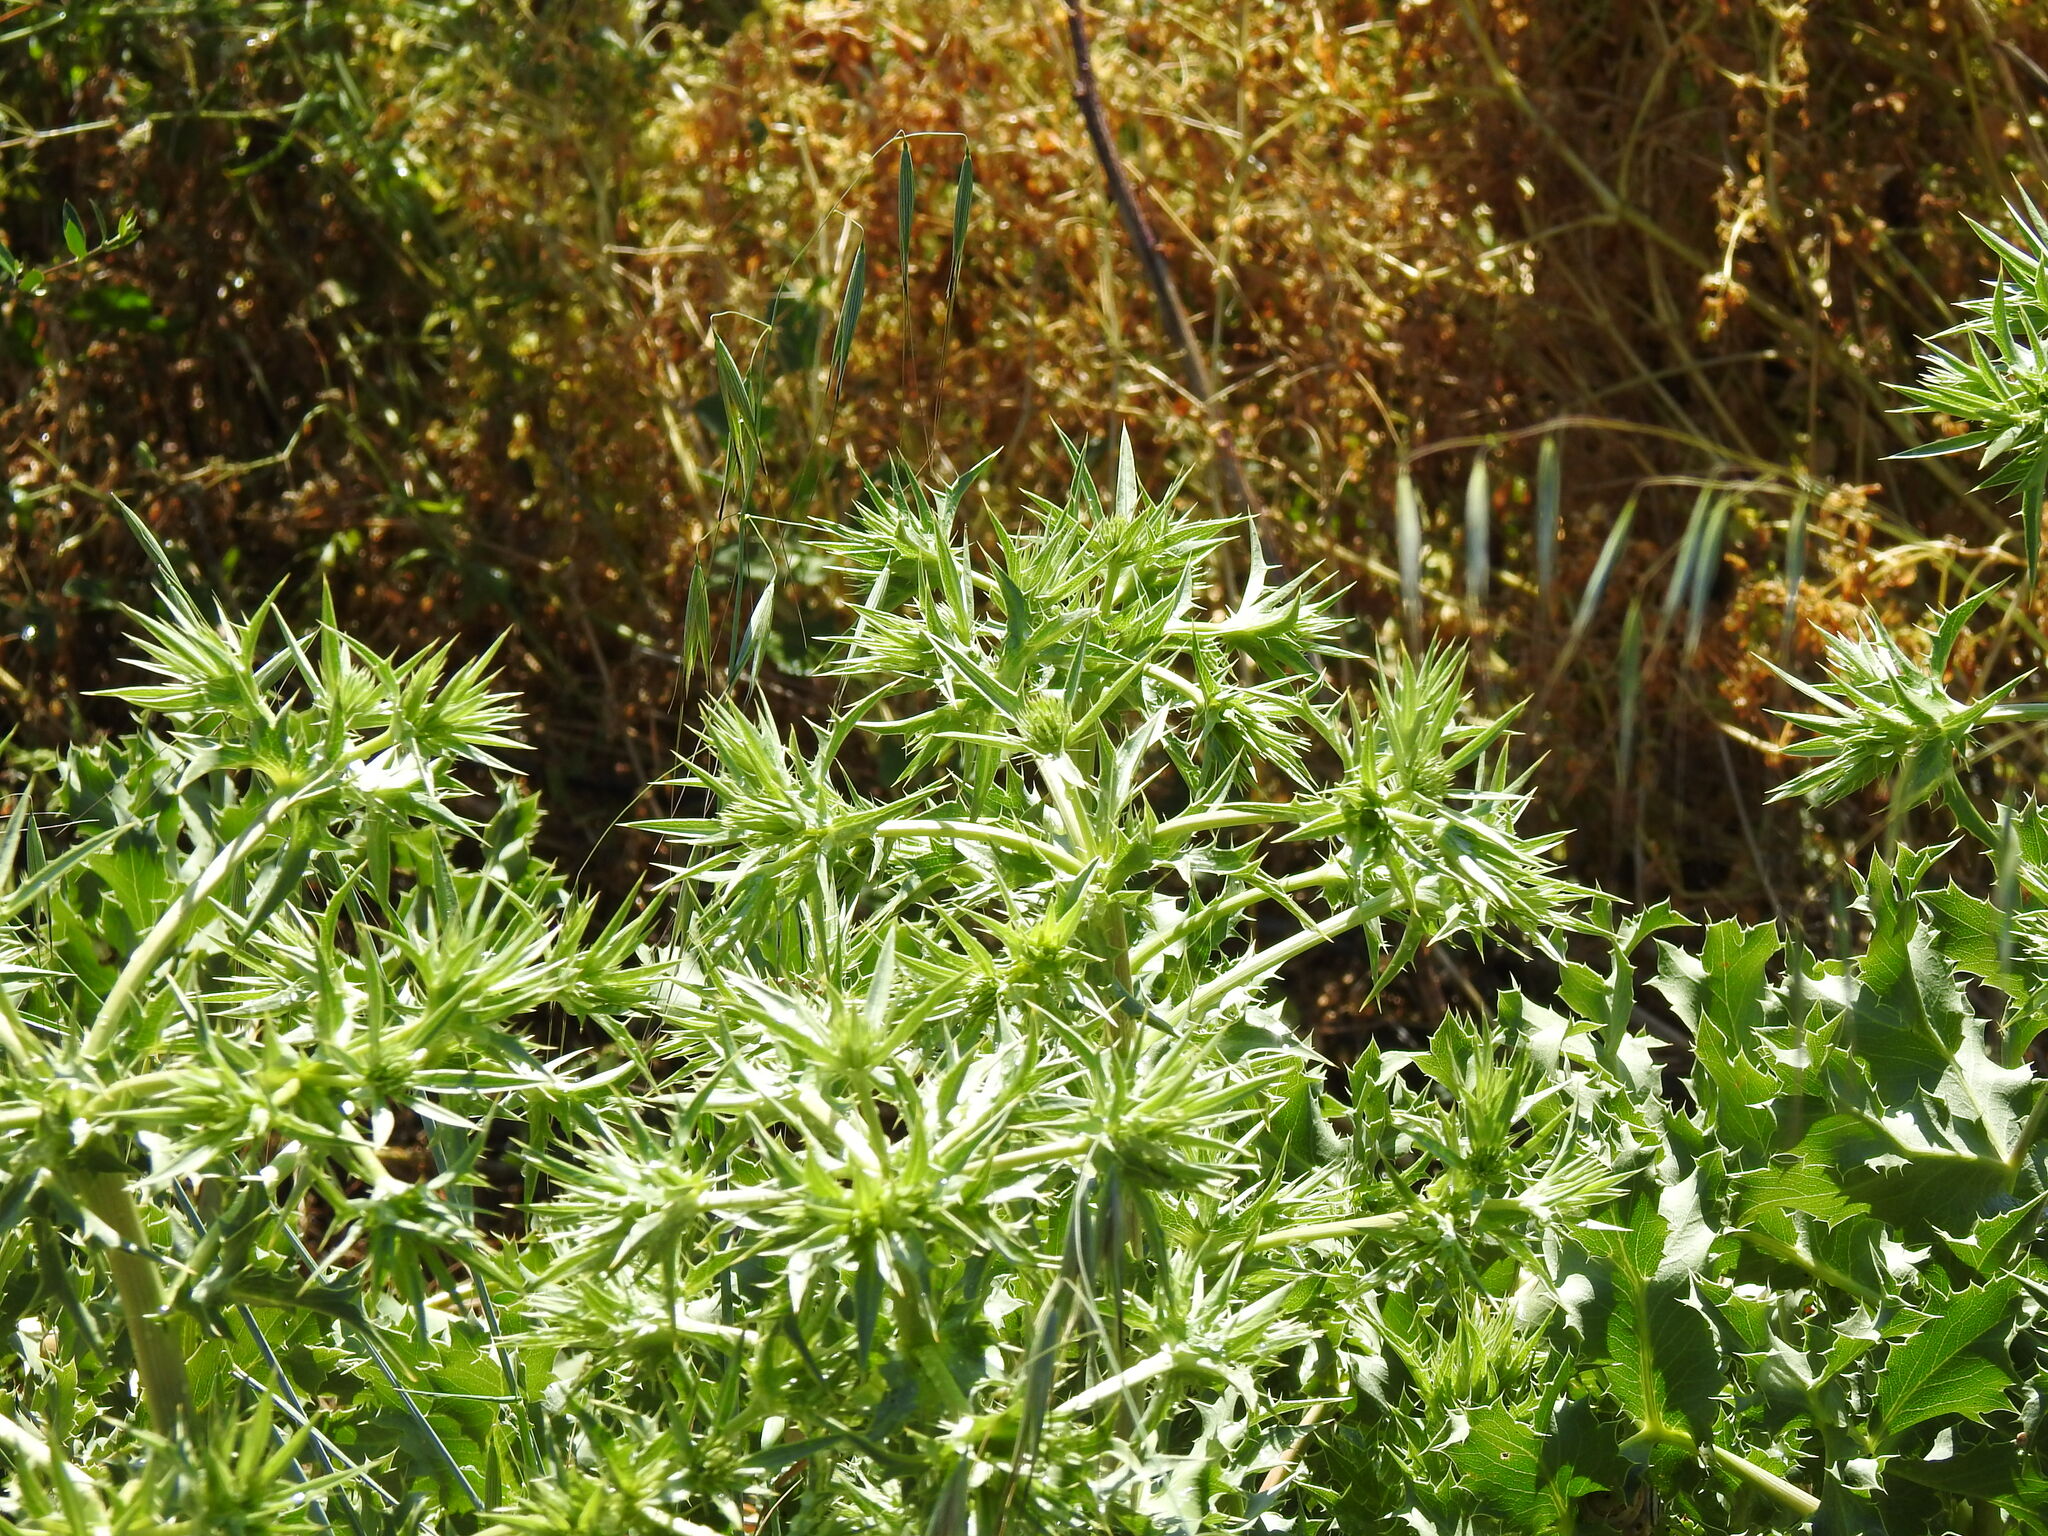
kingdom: Plantae
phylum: Tracheophyta
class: Magnoliopsida
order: Apiales
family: Apiaceae
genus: Eryngium
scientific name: Eryngium campestre
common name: Field eryngo
